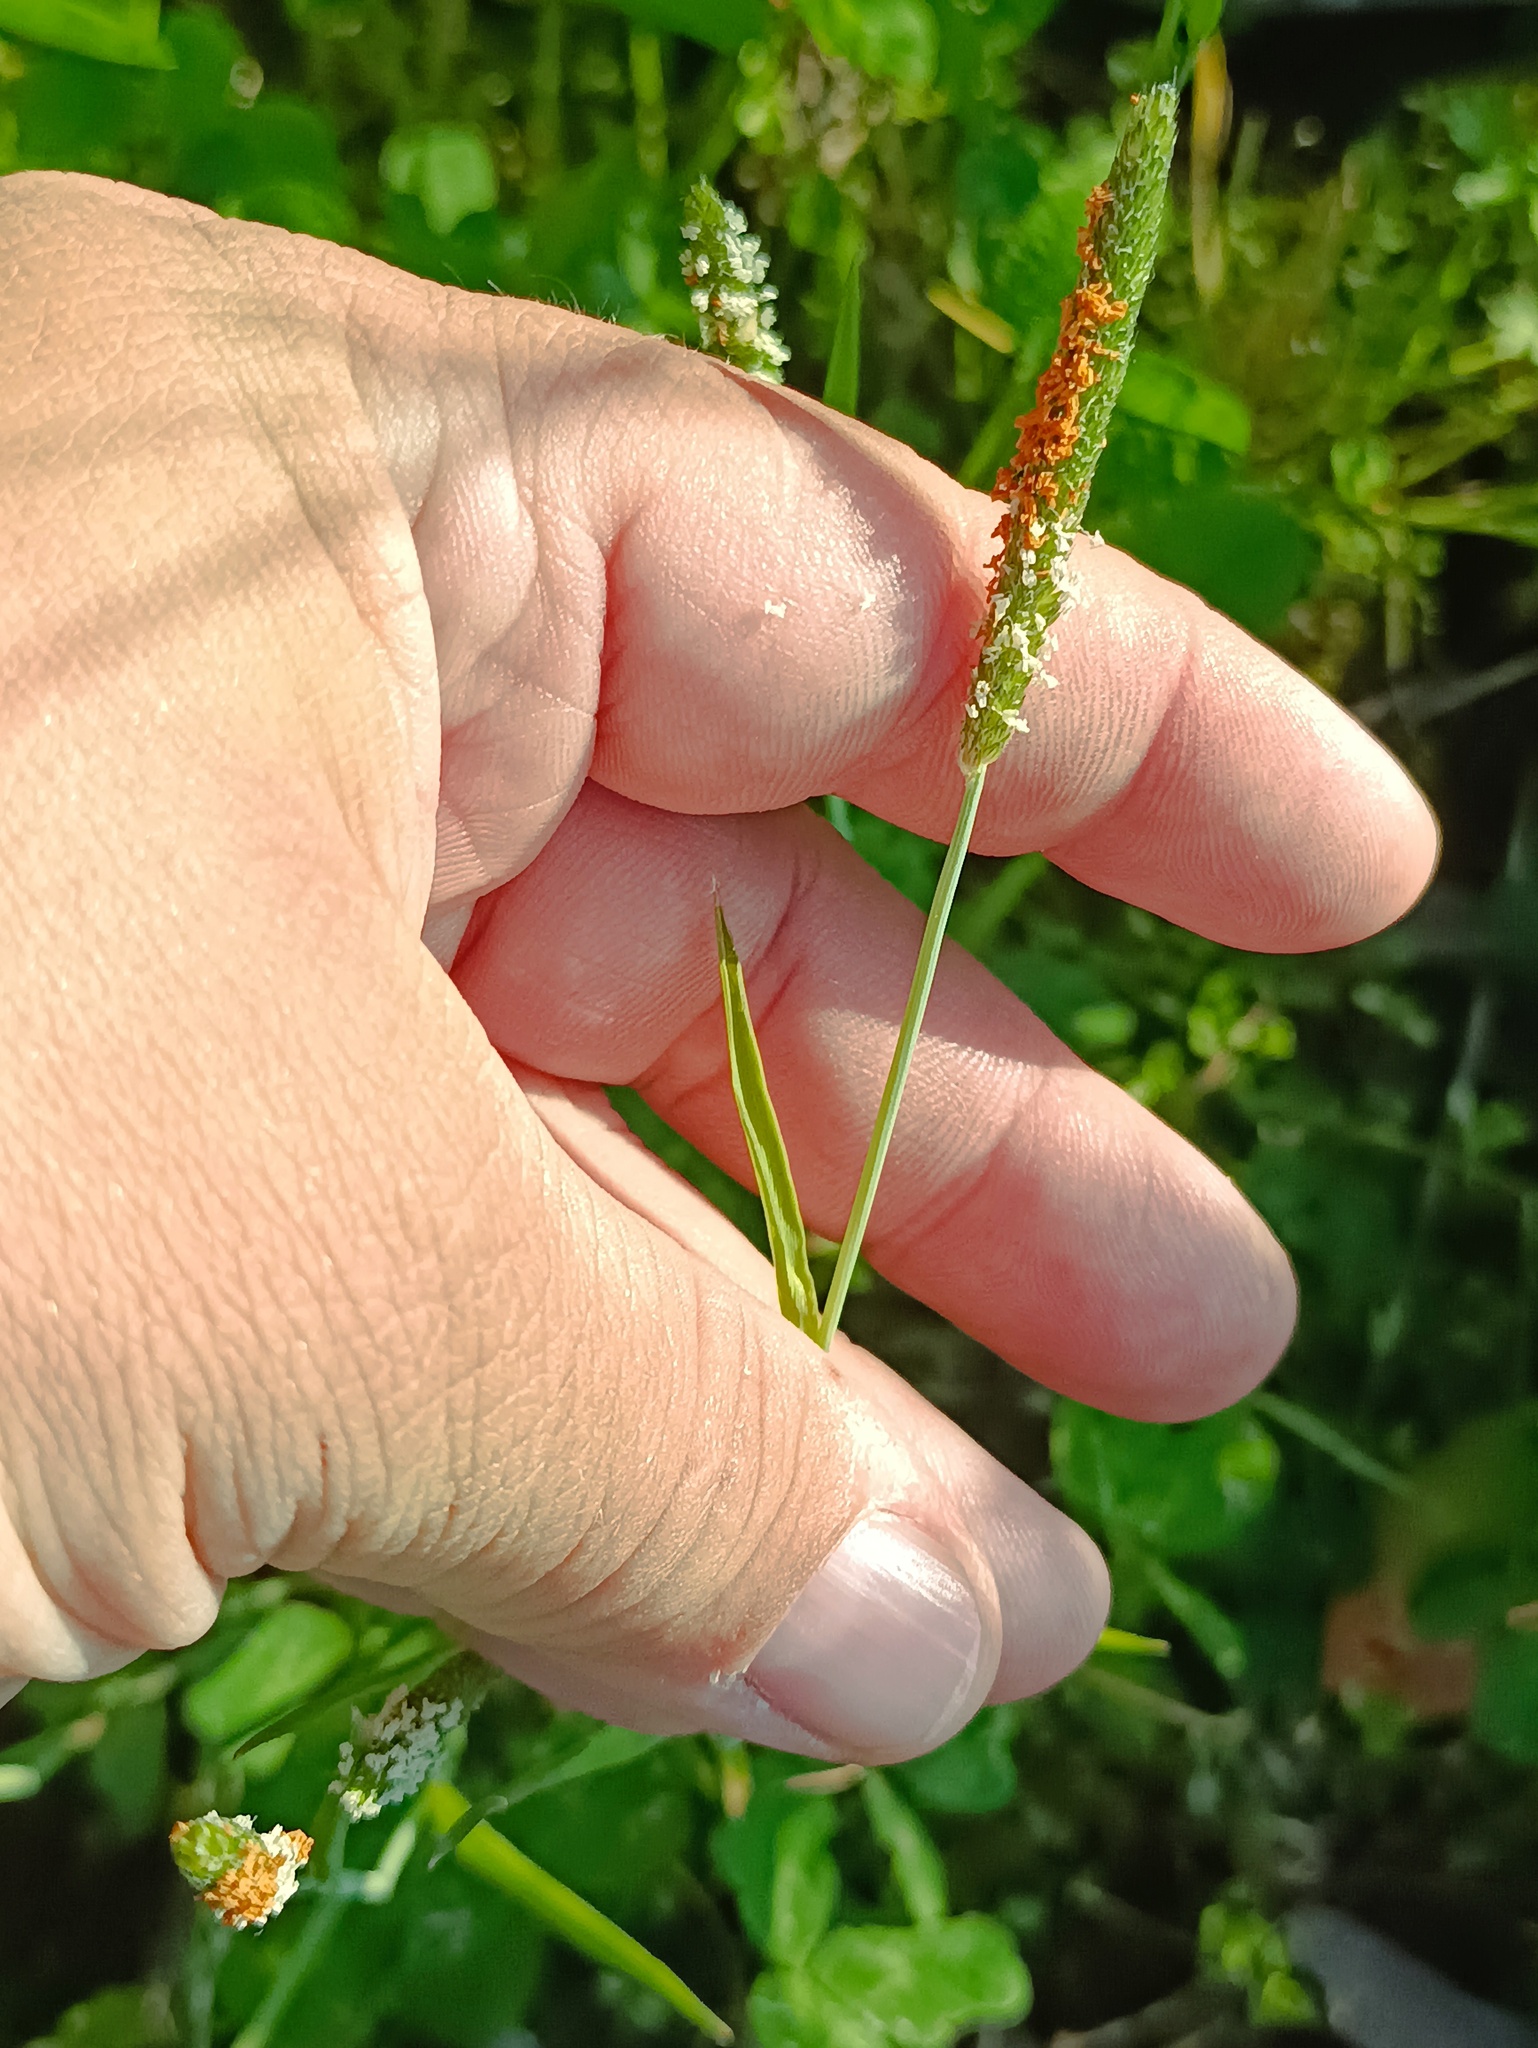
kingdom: Plantae
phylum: Tracheophyta
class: Liliopsida
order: Poales
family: Poaceae
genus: Alopecurus
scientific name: Alopecurus aequalis
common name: Orange foxtail
